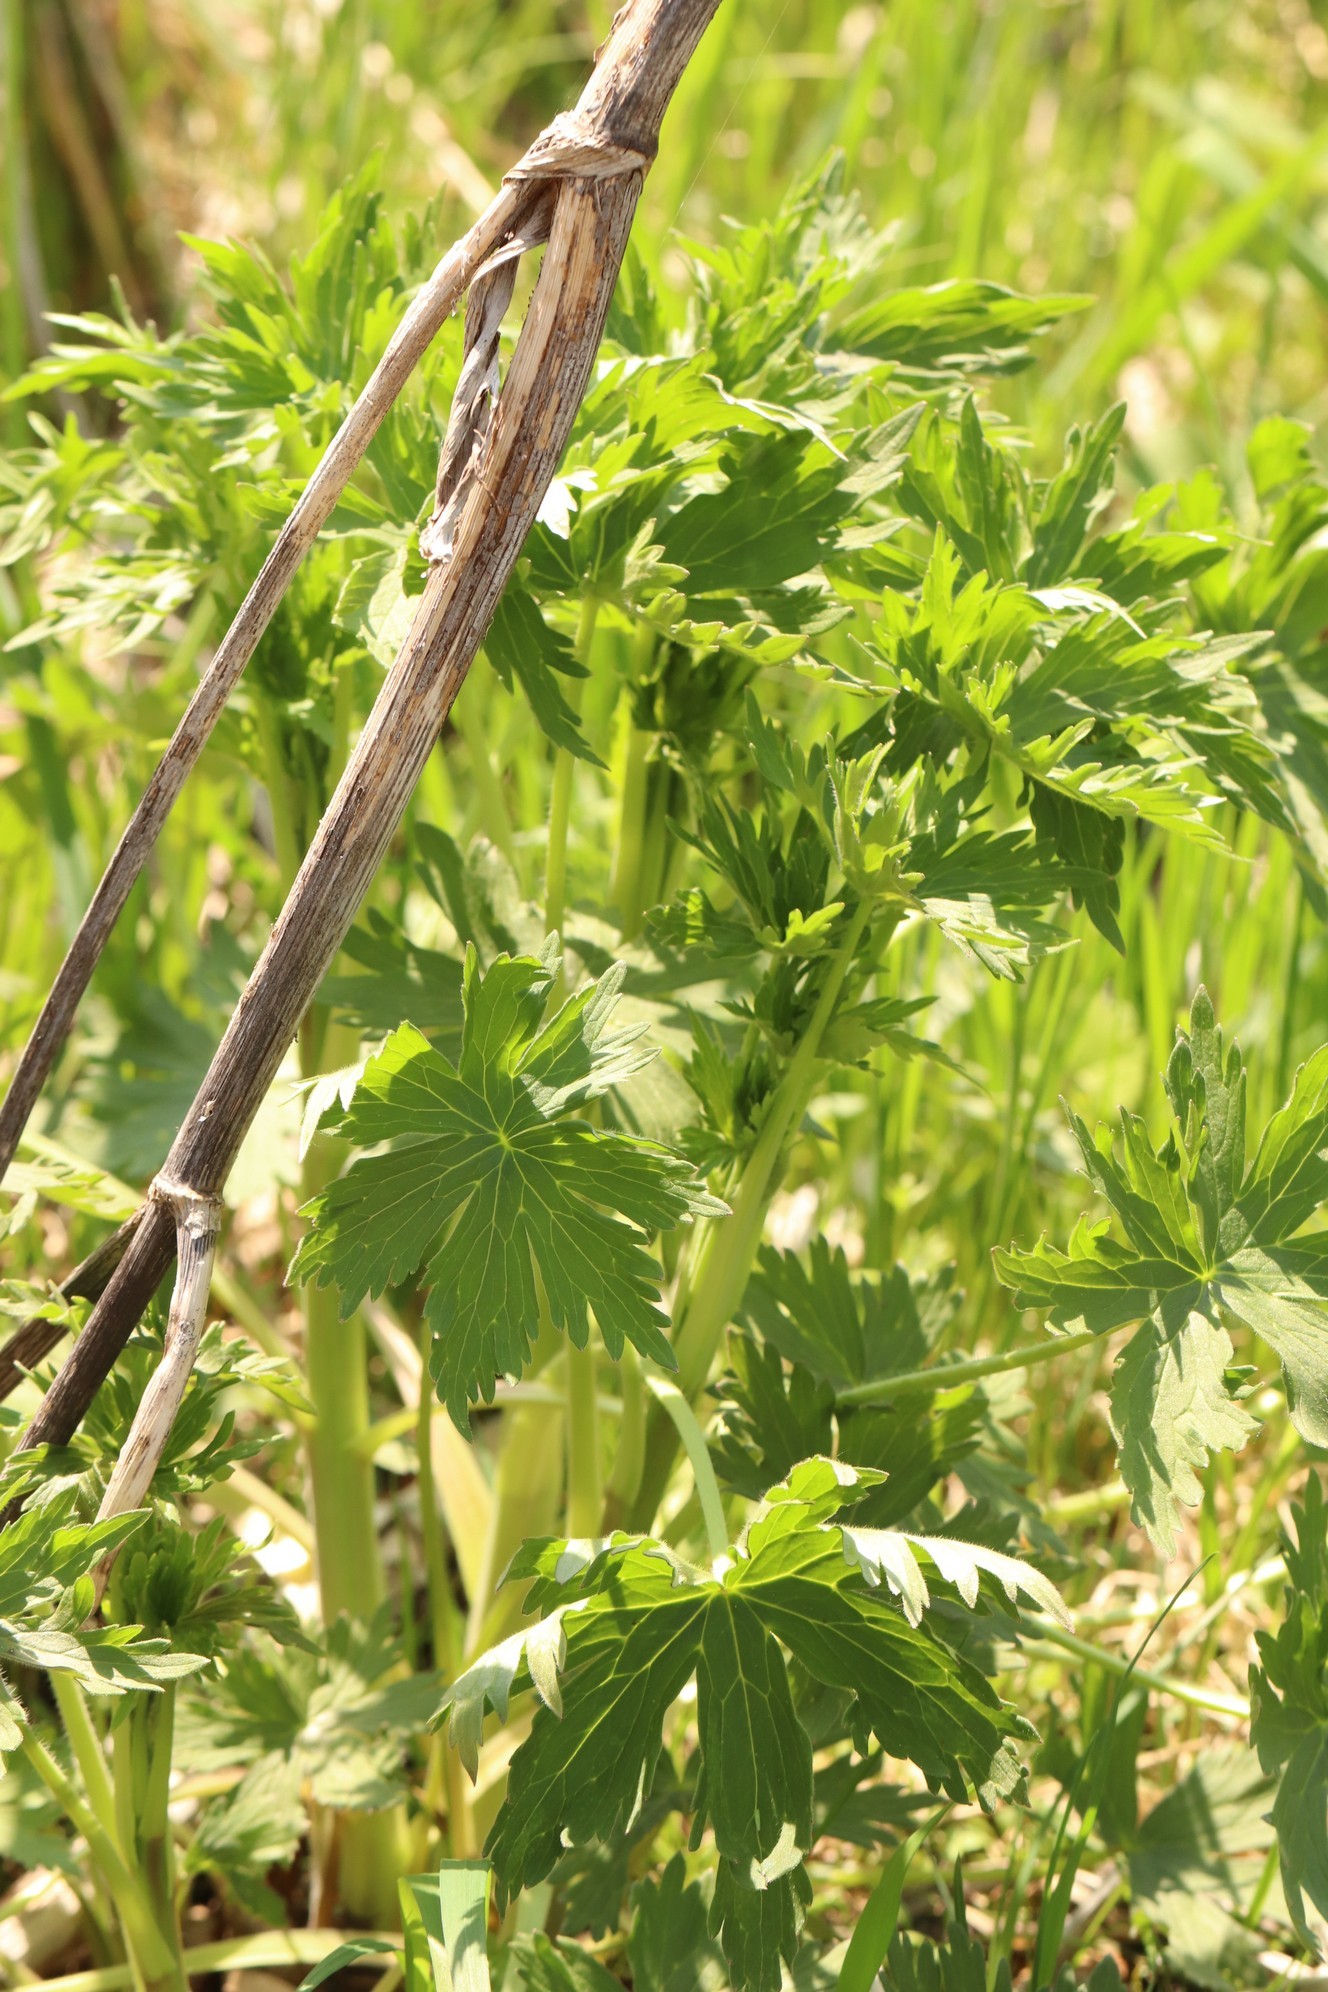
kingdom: Plantae
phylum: Tracheophyta
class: Magnoliopsida
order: Ranunculales
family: Ranunculaceae
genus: Delphinium
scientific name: Delphinium elatum
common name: Candle larkspur
